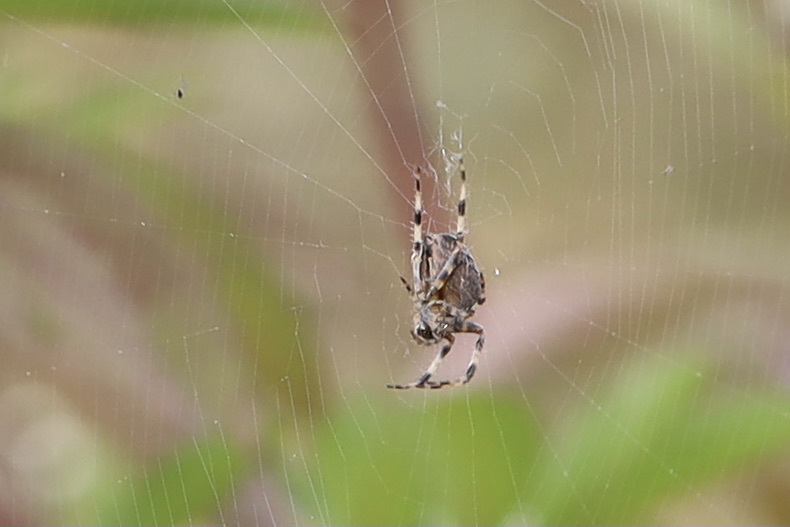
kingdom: Animalia
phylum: Arthropoda
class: Arachnida
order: Araneae
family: Araneidae
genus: Araneus
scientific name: Araneus diadematus
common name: Cross orbweaver
